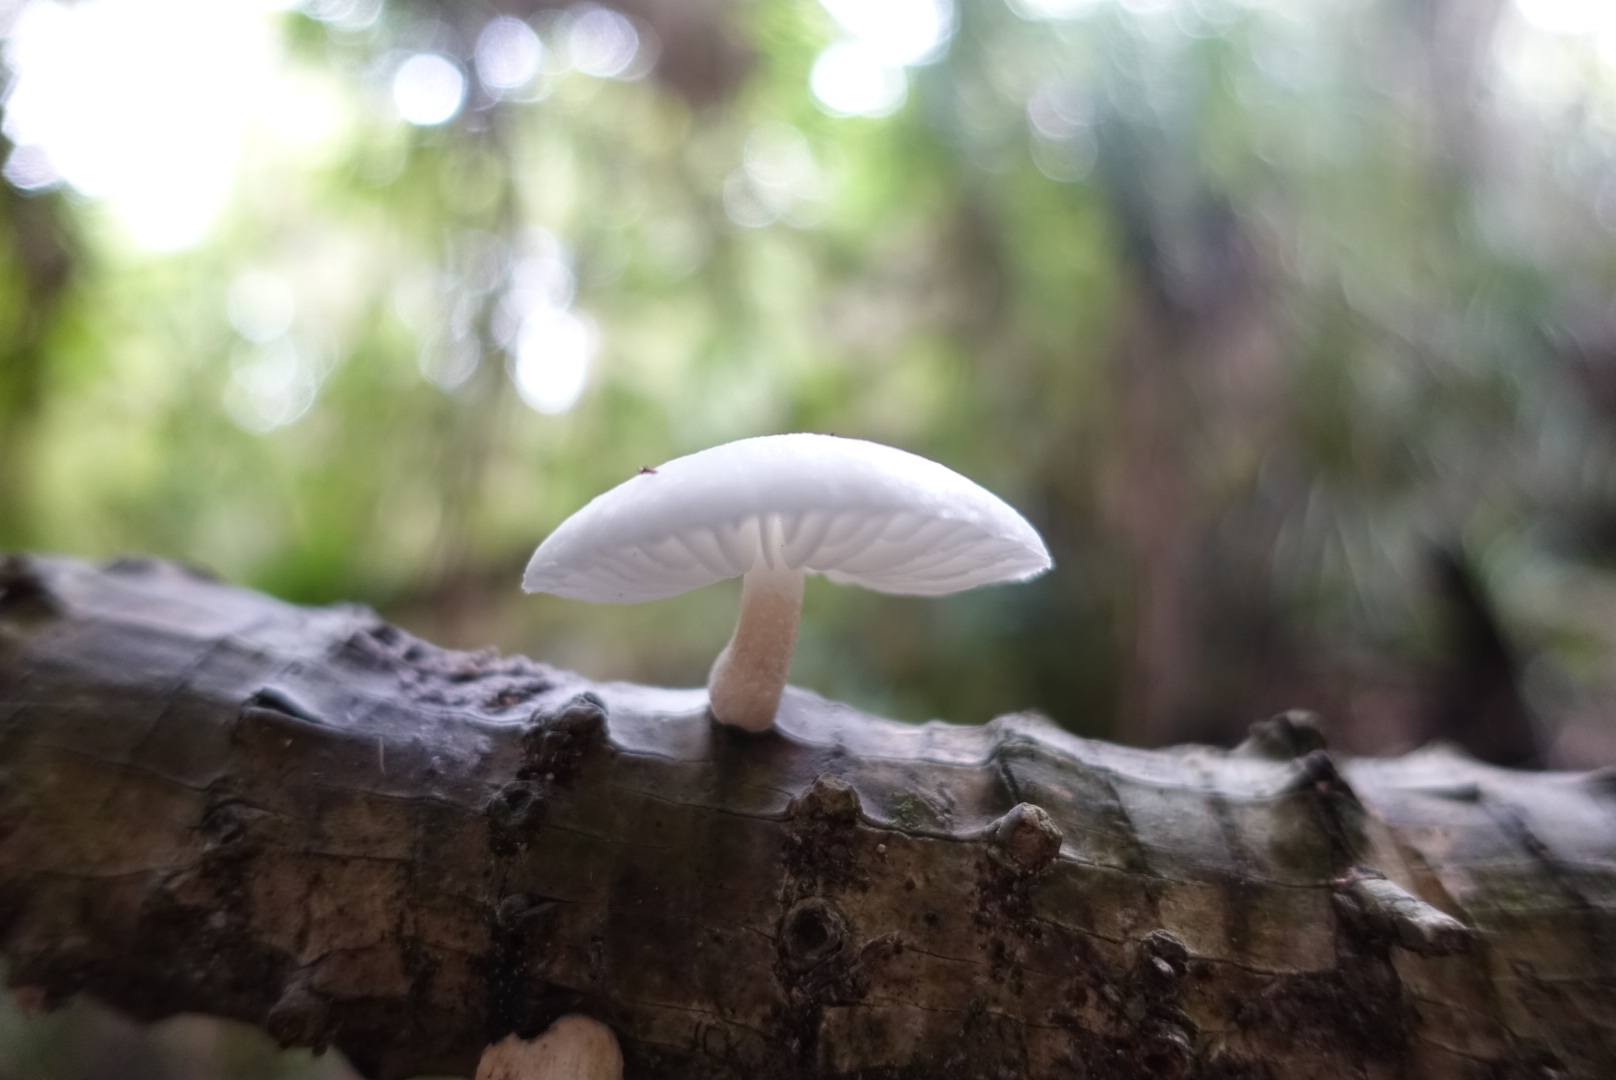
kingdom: Fungi
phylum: Basidiomycota
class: Agaricomycetes
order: Agaricales
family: Physalacriaceae
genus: Oudemansiella
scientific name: Oudemansiella australis
